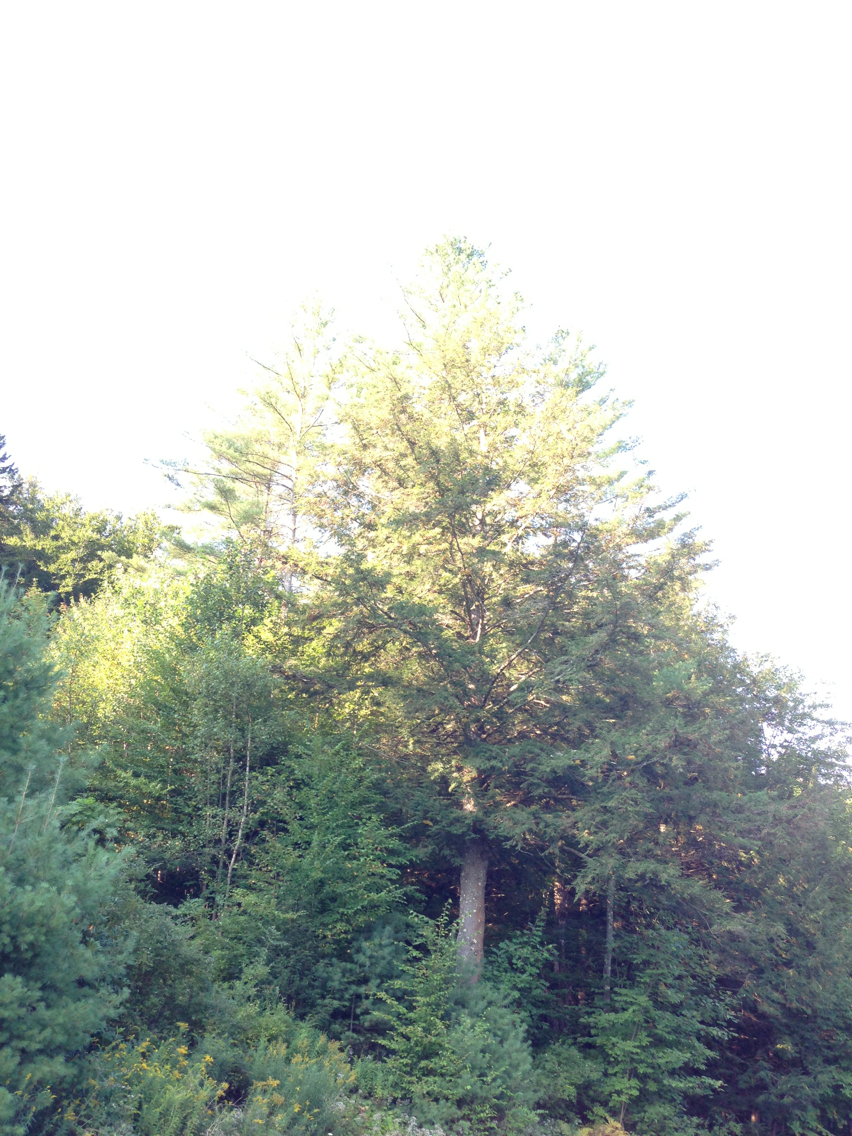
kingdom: Plantae
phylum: Tracheophyta
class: Pinopsida
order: Pinales
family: Pinaceae
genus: Tsuga
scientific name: Tsuga canadensis
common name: Eastern hemlock
